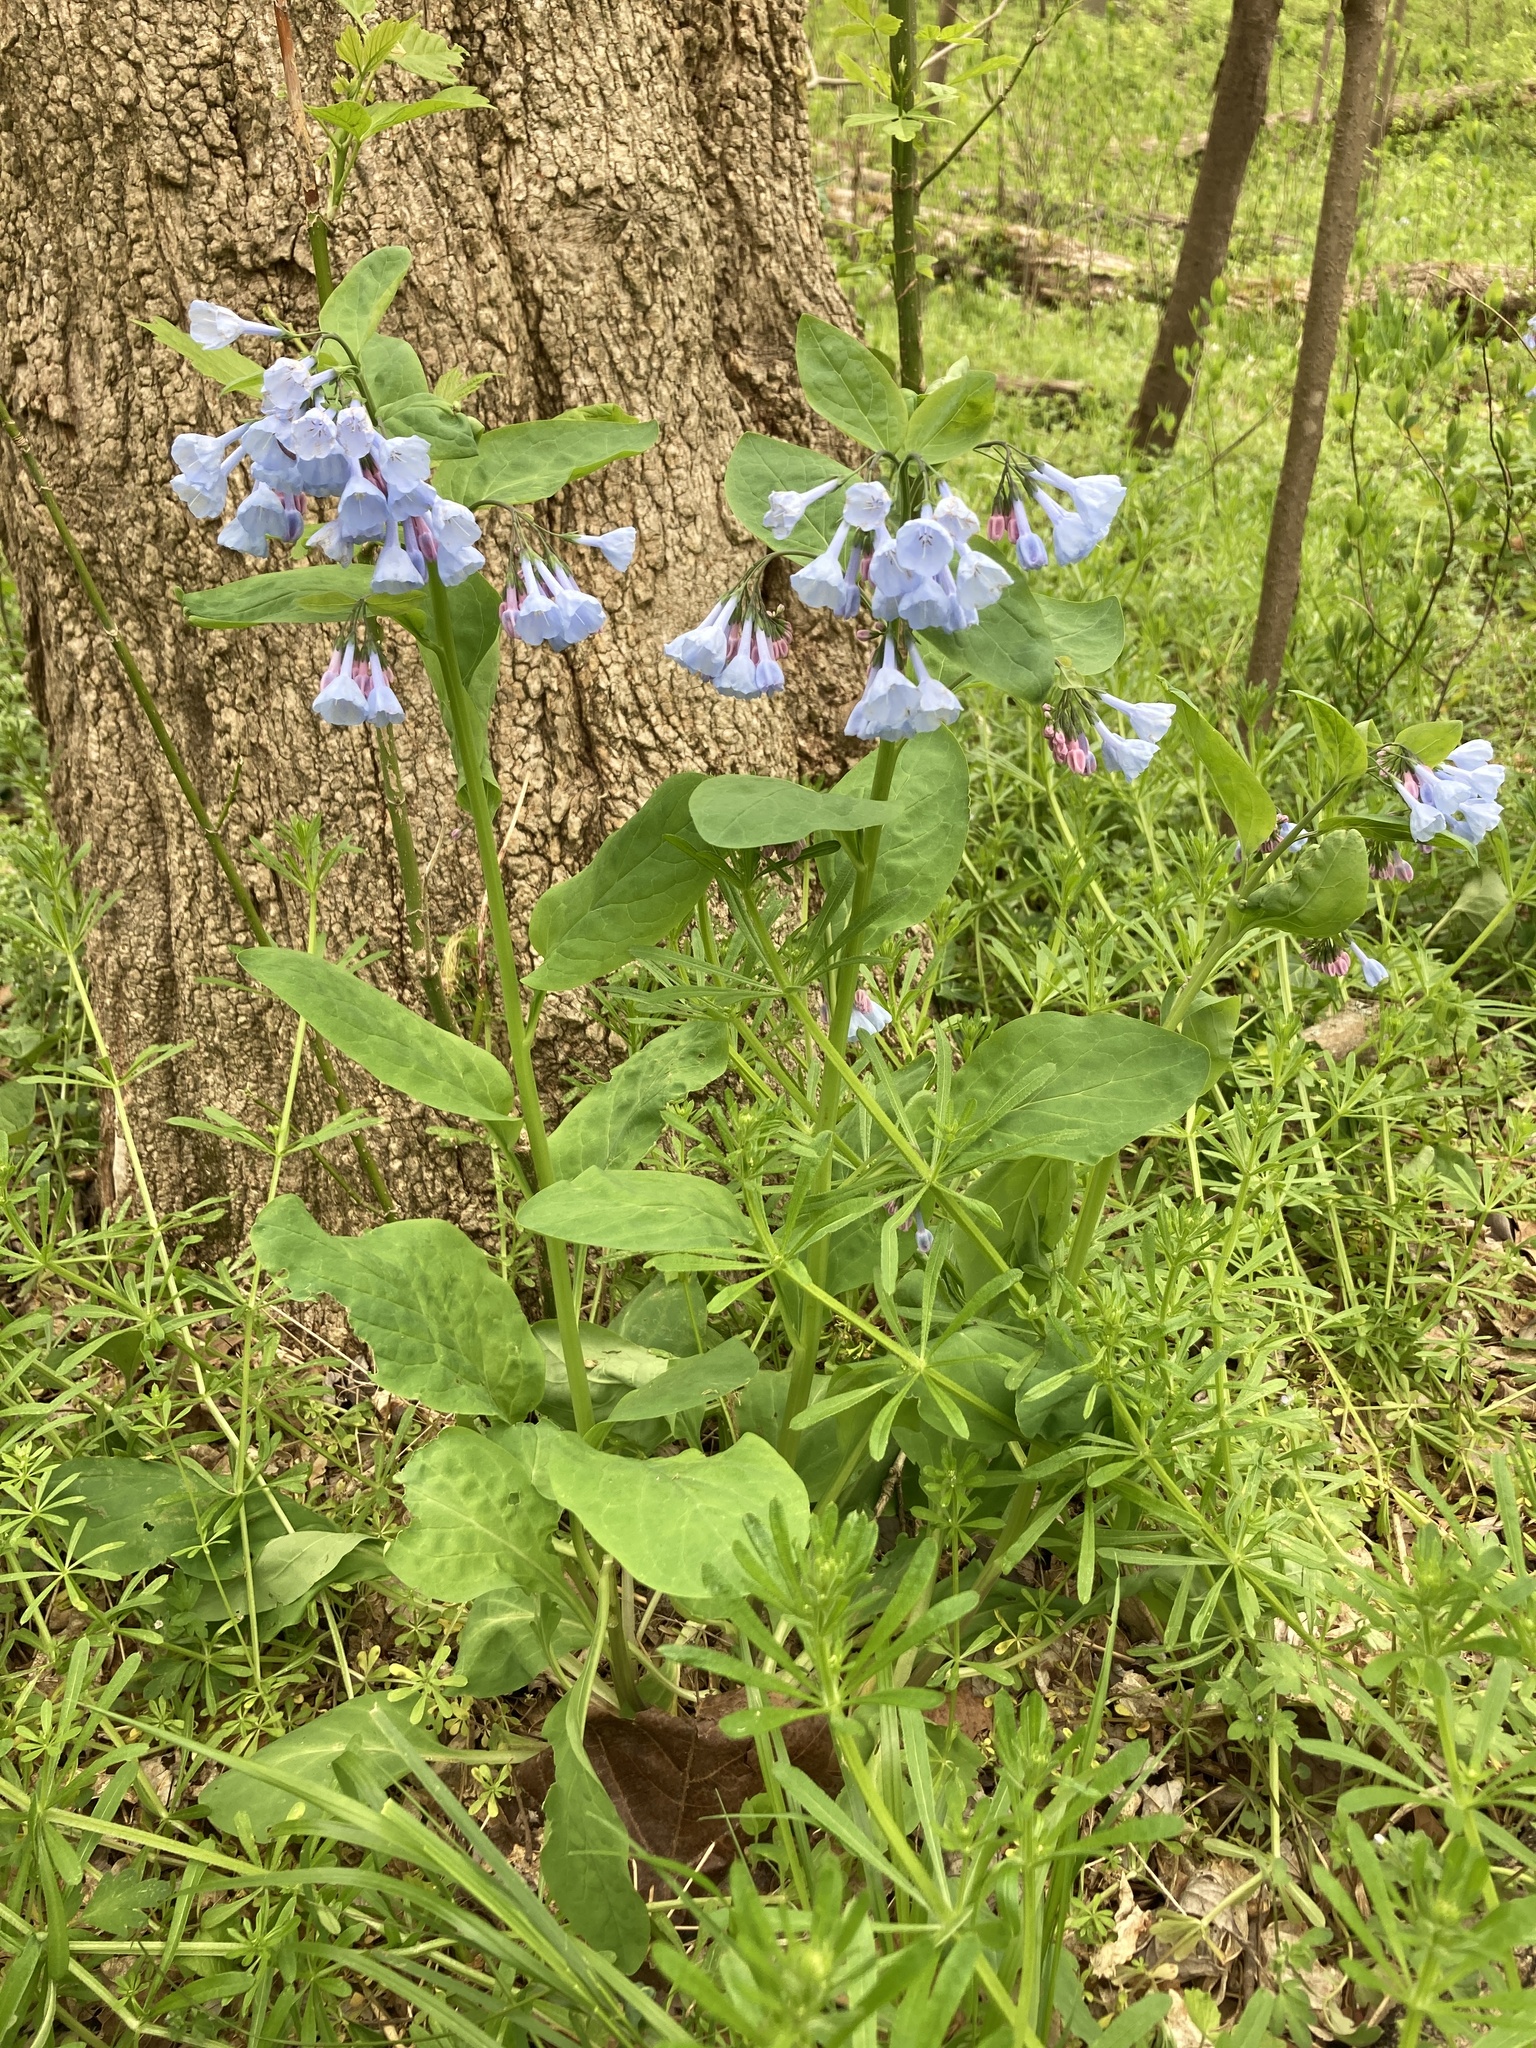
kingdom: Plantae
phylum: Tracheophyta
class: Magnoliopsida
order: Boraginales
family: Boraginaceae
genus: Mertensia
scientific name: Mertensia virginica
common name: Virginia bluebells
